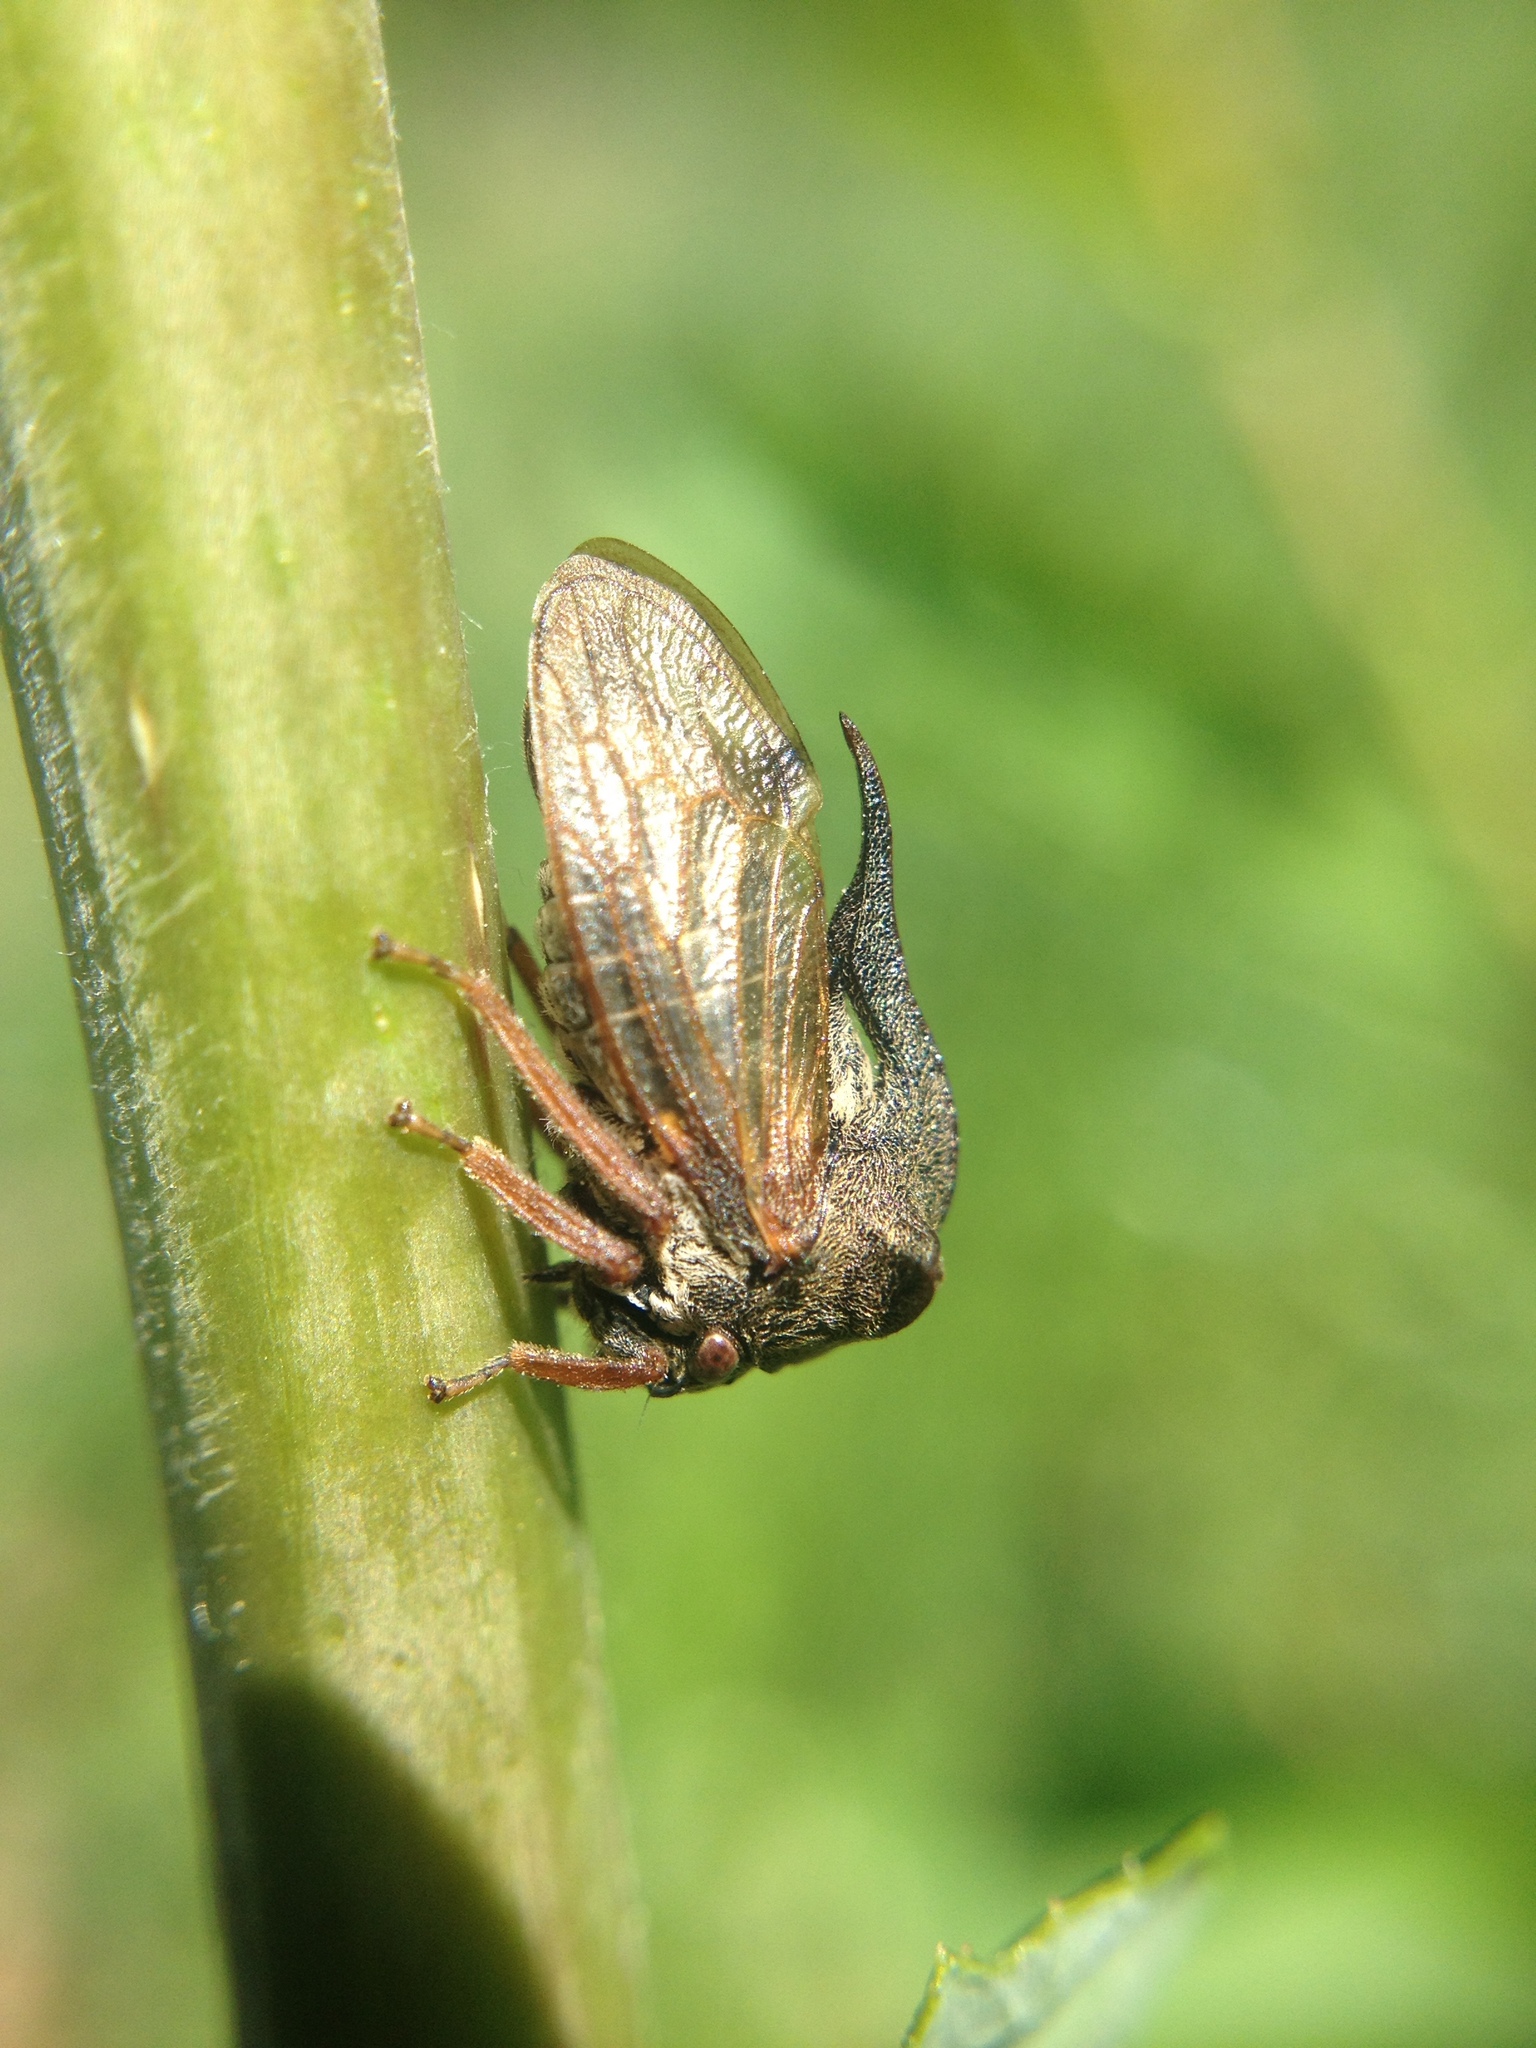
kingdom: Animalia
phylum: Arthropoda
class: Insecta
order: Hemiptera
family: Membracidae
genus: Centrotus
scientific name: Centrotus cornuta
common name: Treehopper
